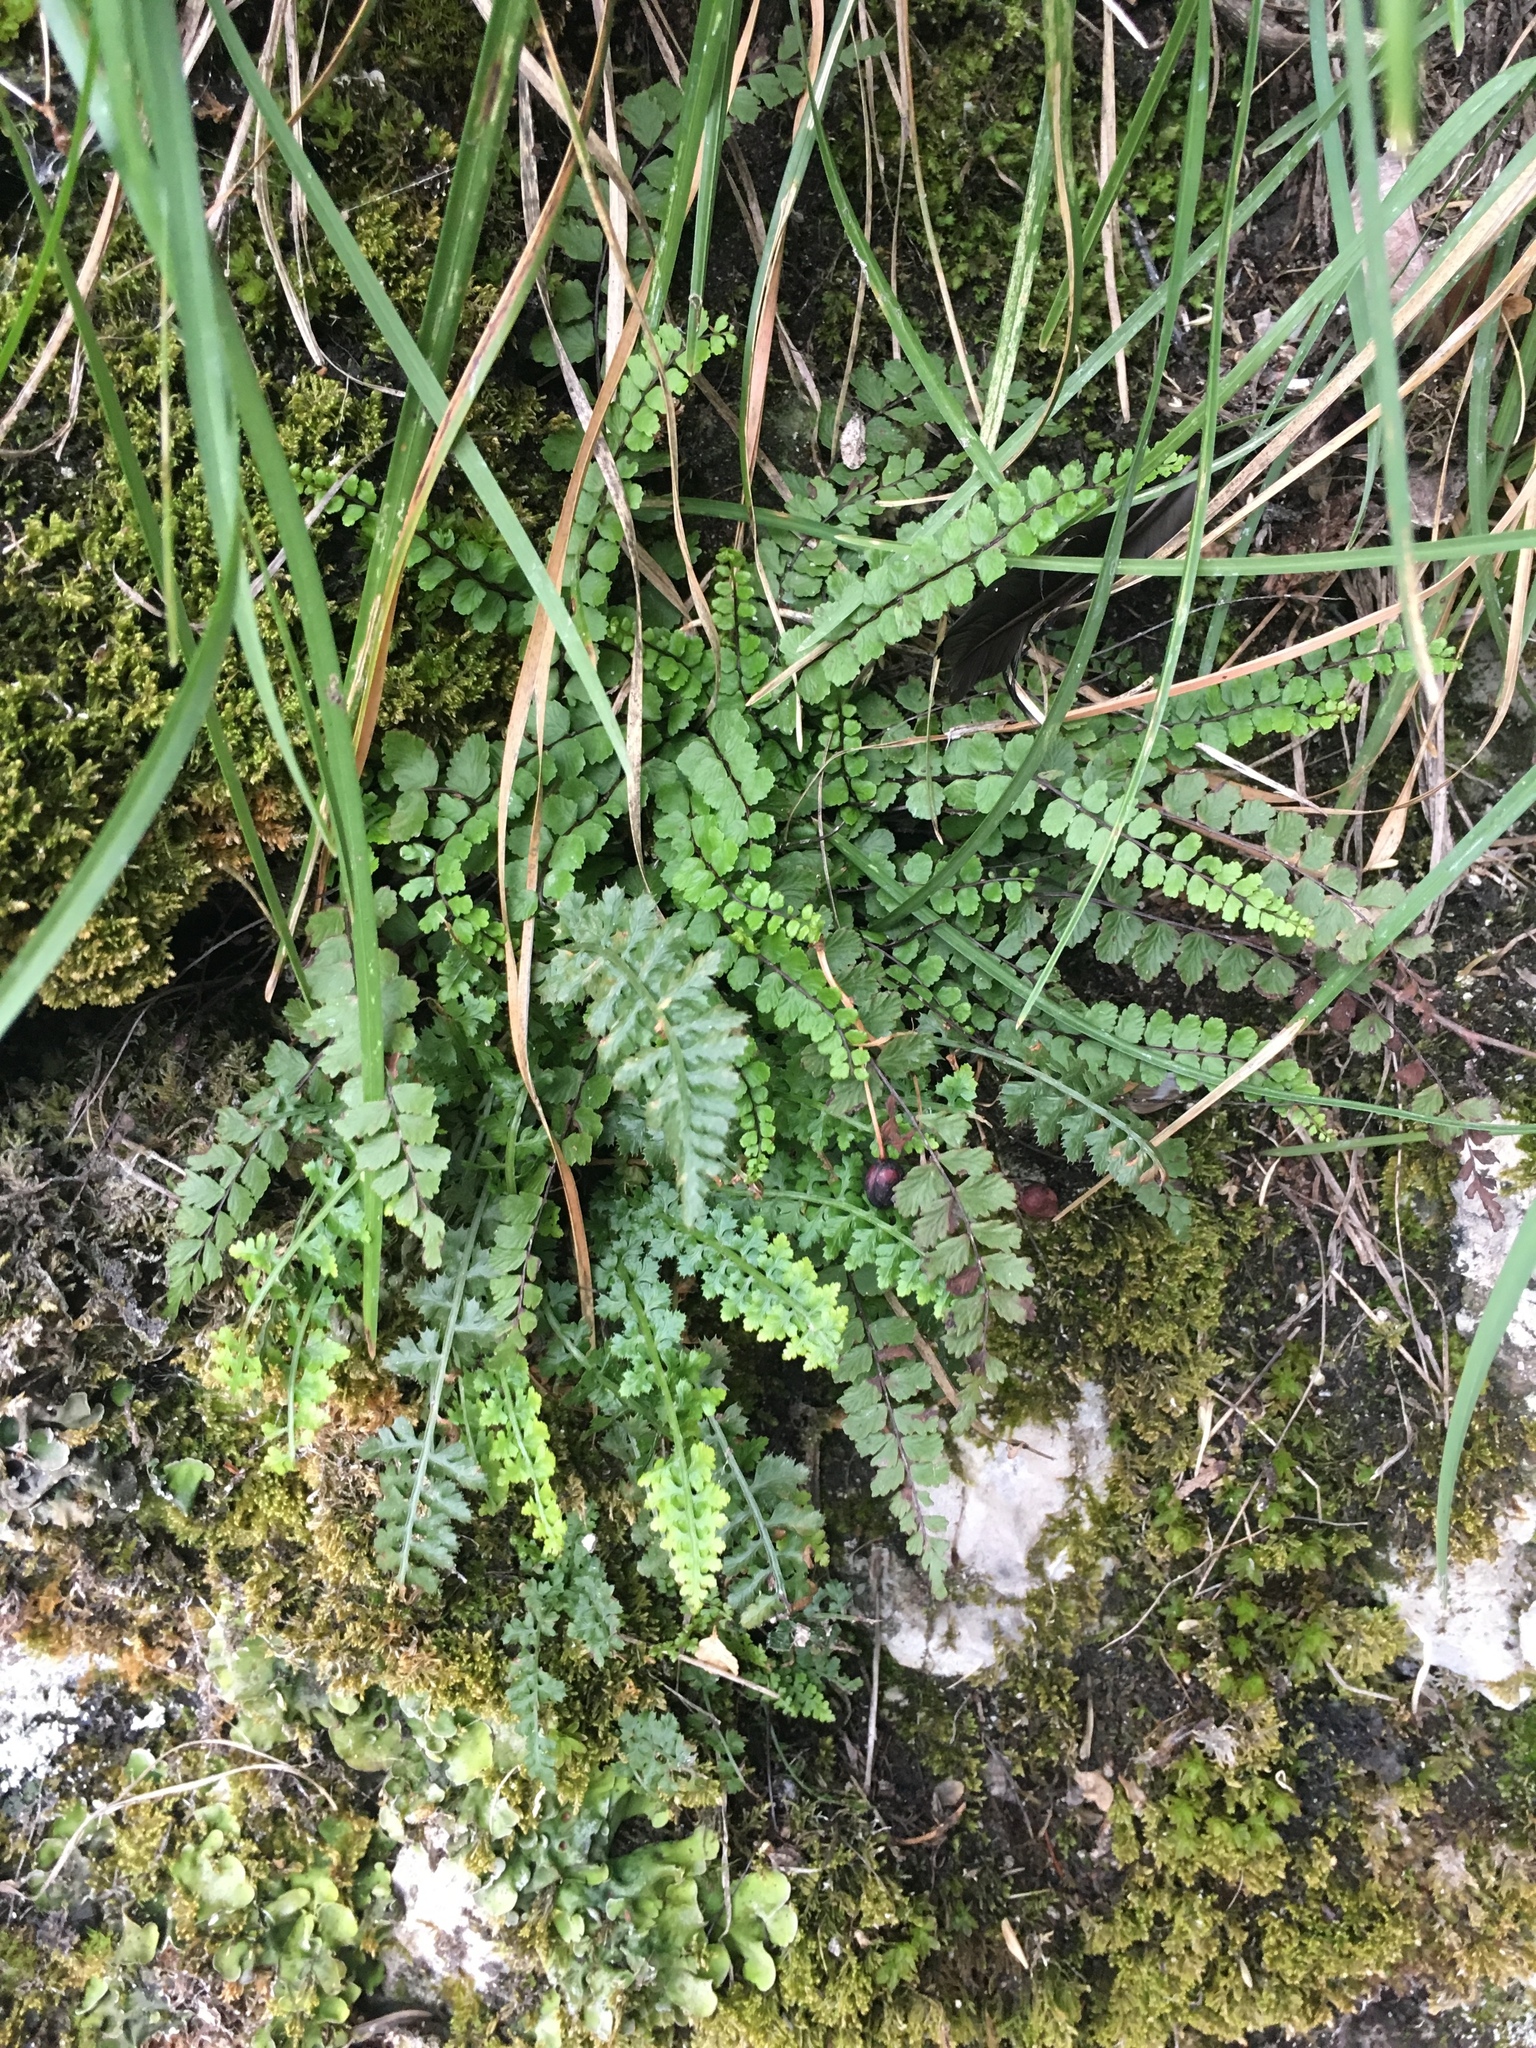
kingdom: Plantae
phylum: Tracheophyta
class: Polypodiopsida
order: Polypodiales
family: Aspleniaceae
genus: Asplenium
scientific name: Asplenium trichomanes
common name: Maidenhair spleenwort
